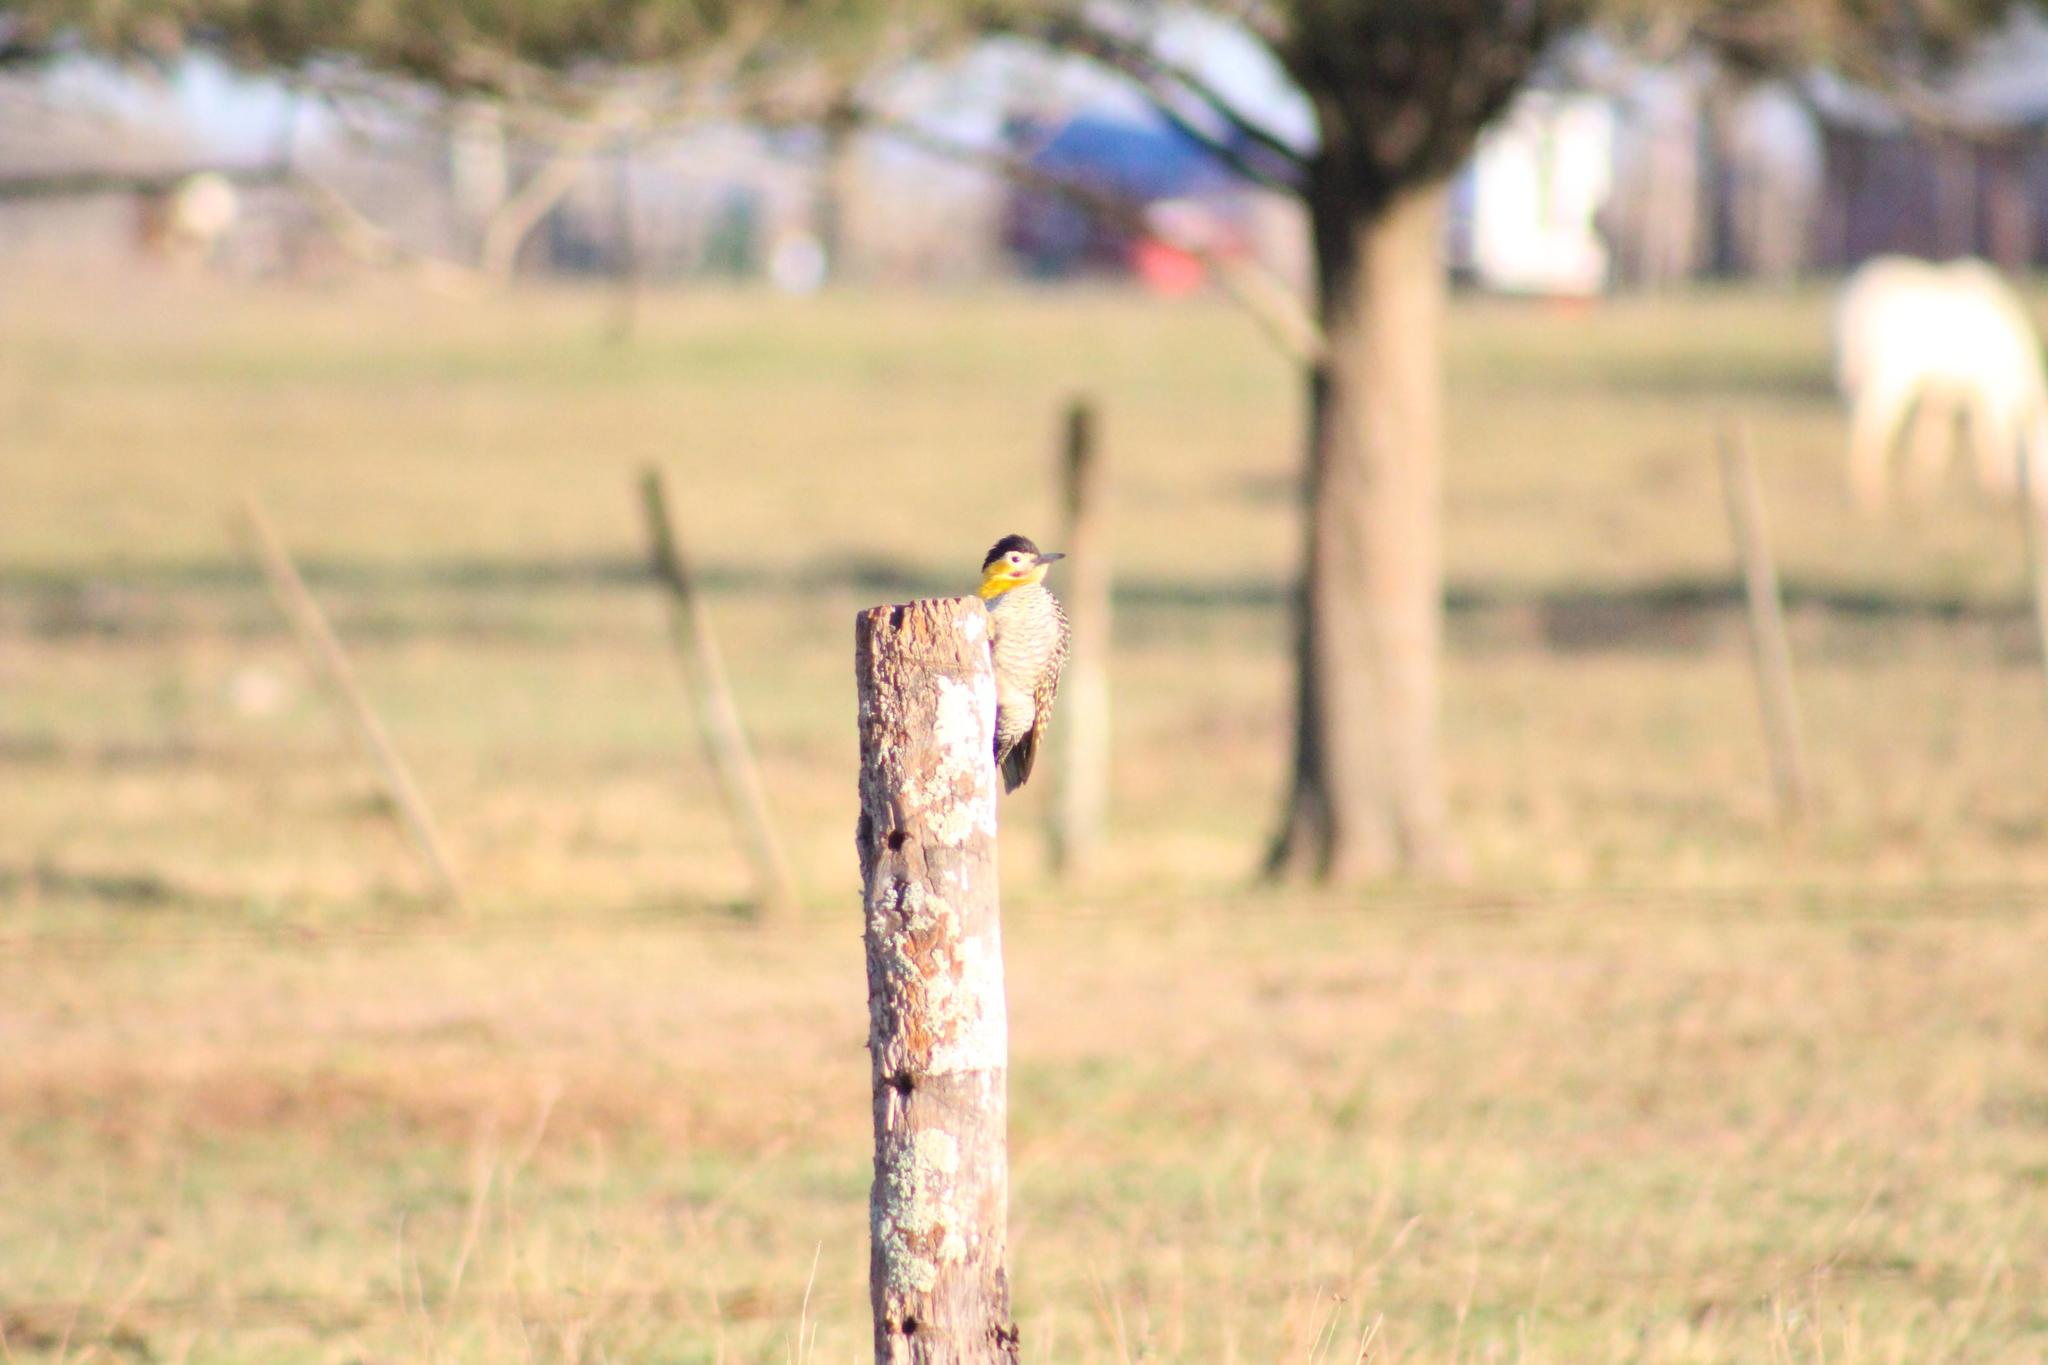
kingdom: Animalia
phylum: Chordata
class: Aves
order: Piciformes
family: Picidae
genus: Colaptes
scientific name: Colaptes campestris
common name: Campo flicker
